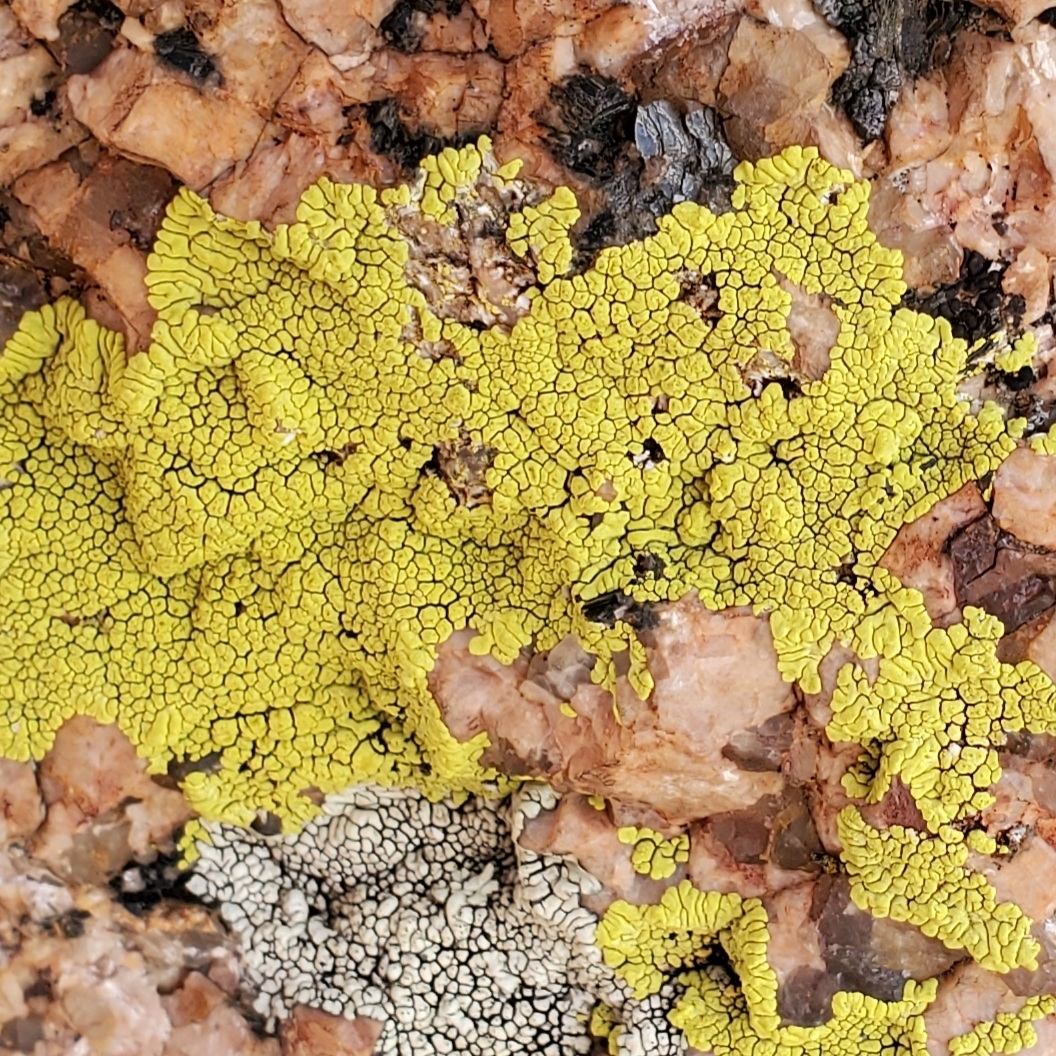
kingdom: Fungi
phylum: Ascomycota
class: Lecanoromycetes
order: Acarosporales
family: Acarosporaceae
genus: Pleopsidium
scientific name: Pleopsidium oxytonum
